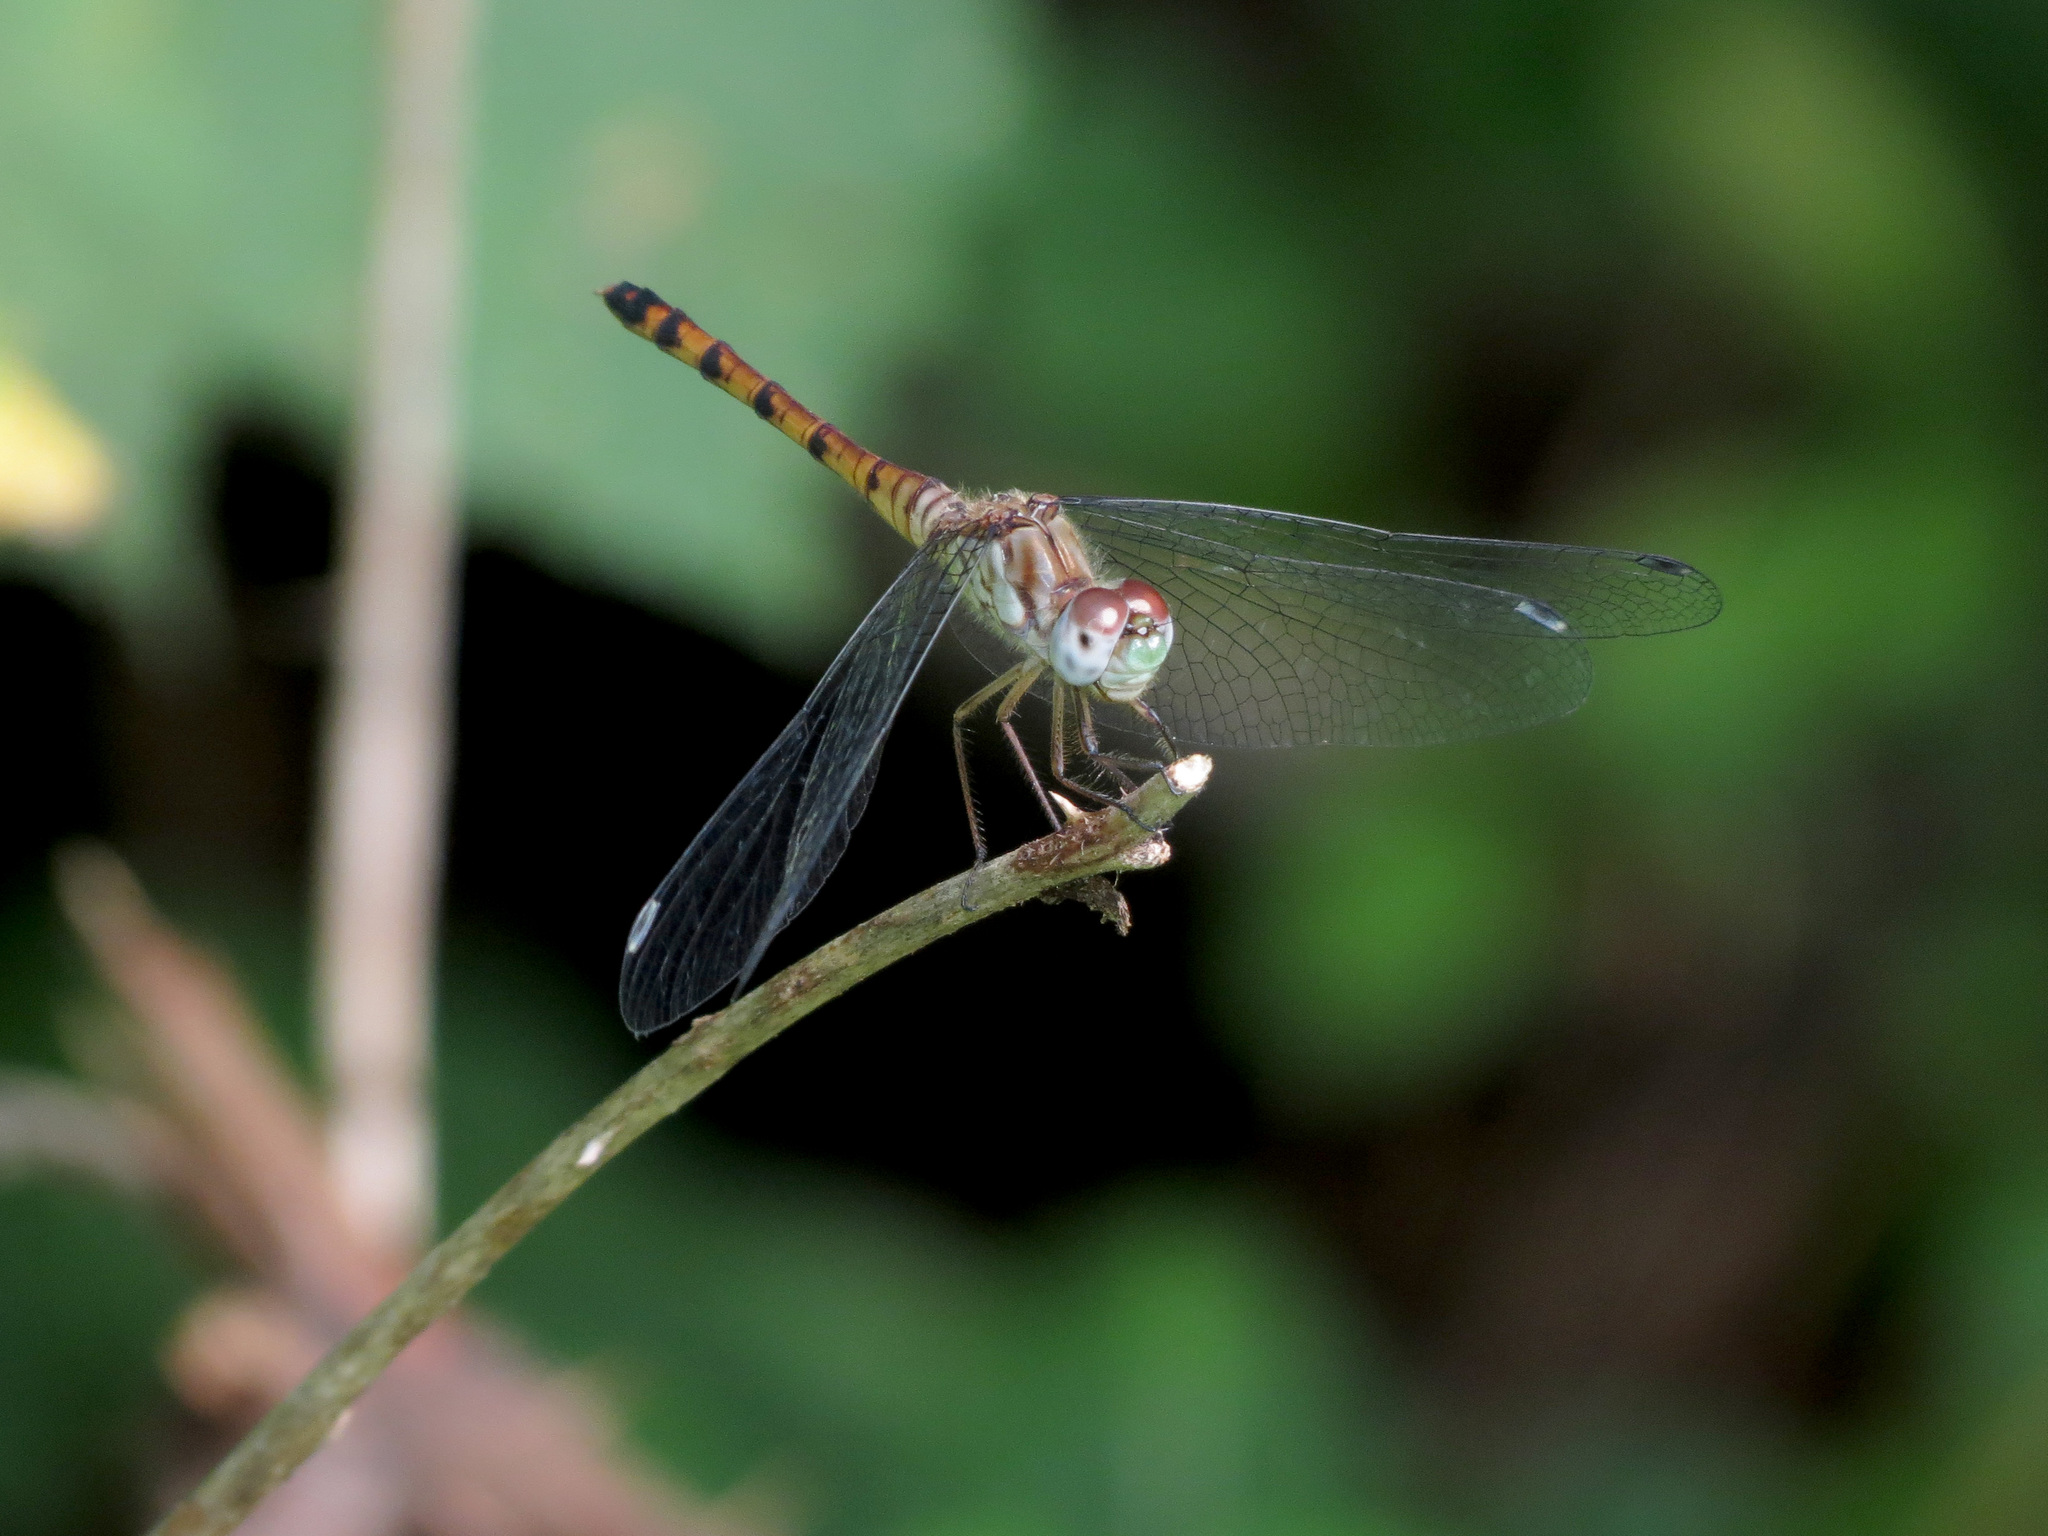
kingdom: Animalia
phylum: Arthropoda
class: Insecta
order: Odonata
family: Libellulidae
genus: Sympetrum
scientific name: Sympetrum ambiguum
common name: Blue-faced meadowhawk
